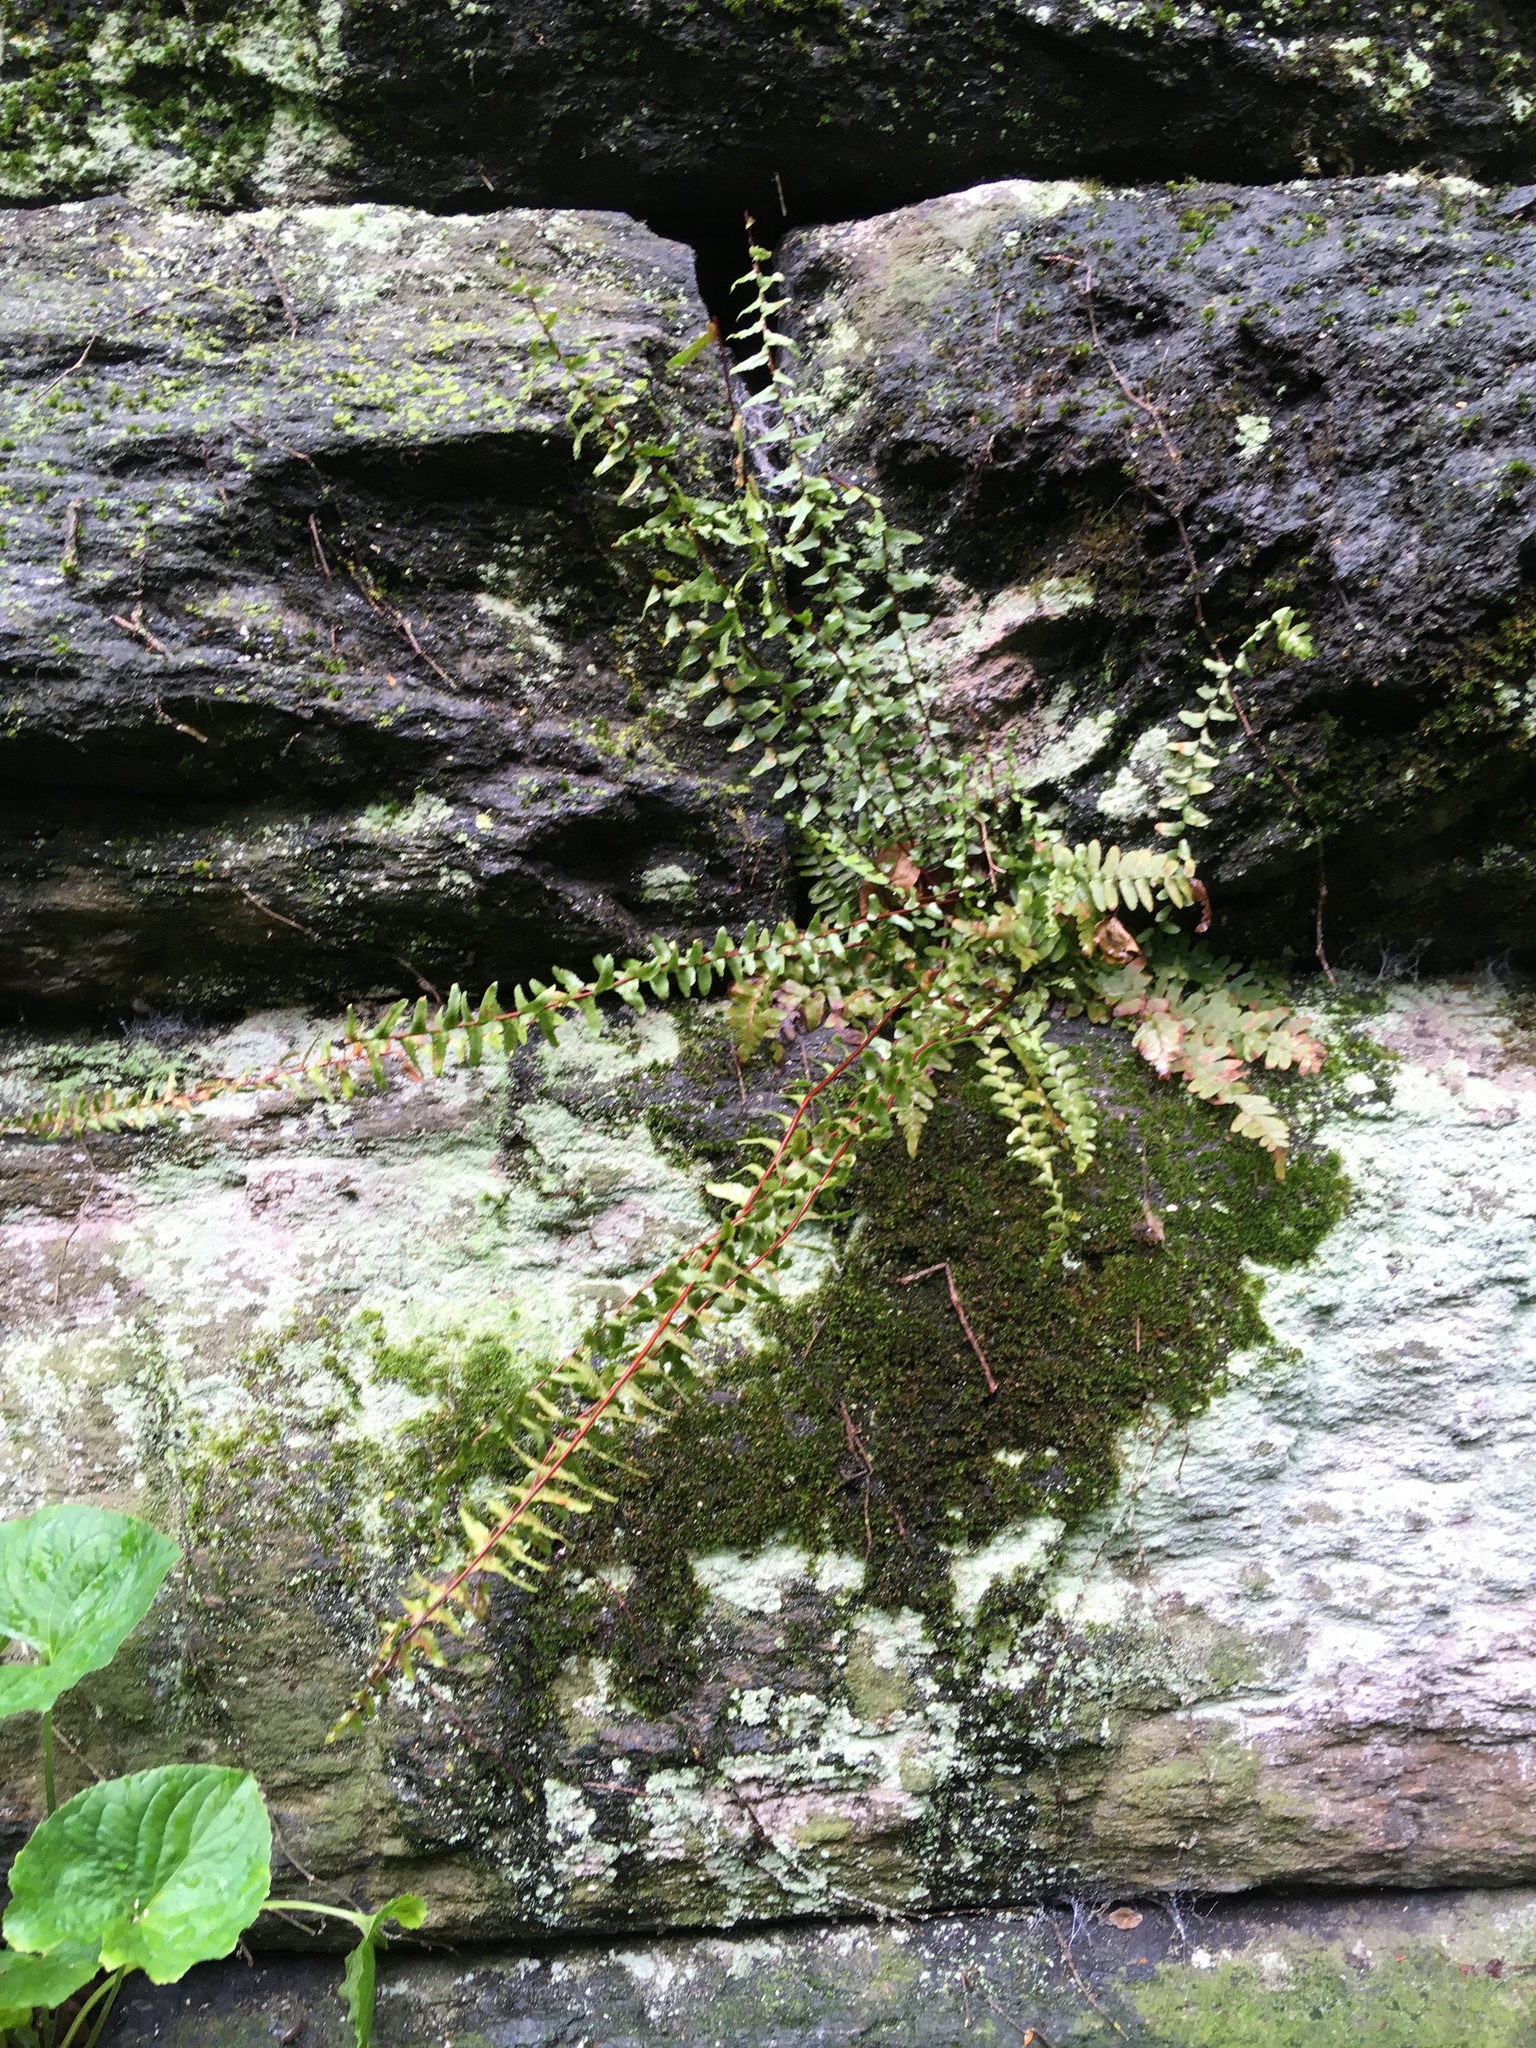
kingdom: Plantae
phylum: Tracheophyta
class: Polypodiopsida
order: Polypodiales
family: Aspleniaceae
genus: Asplenium
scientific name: Asplenium platyneuron
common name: Ebony spleenwort
